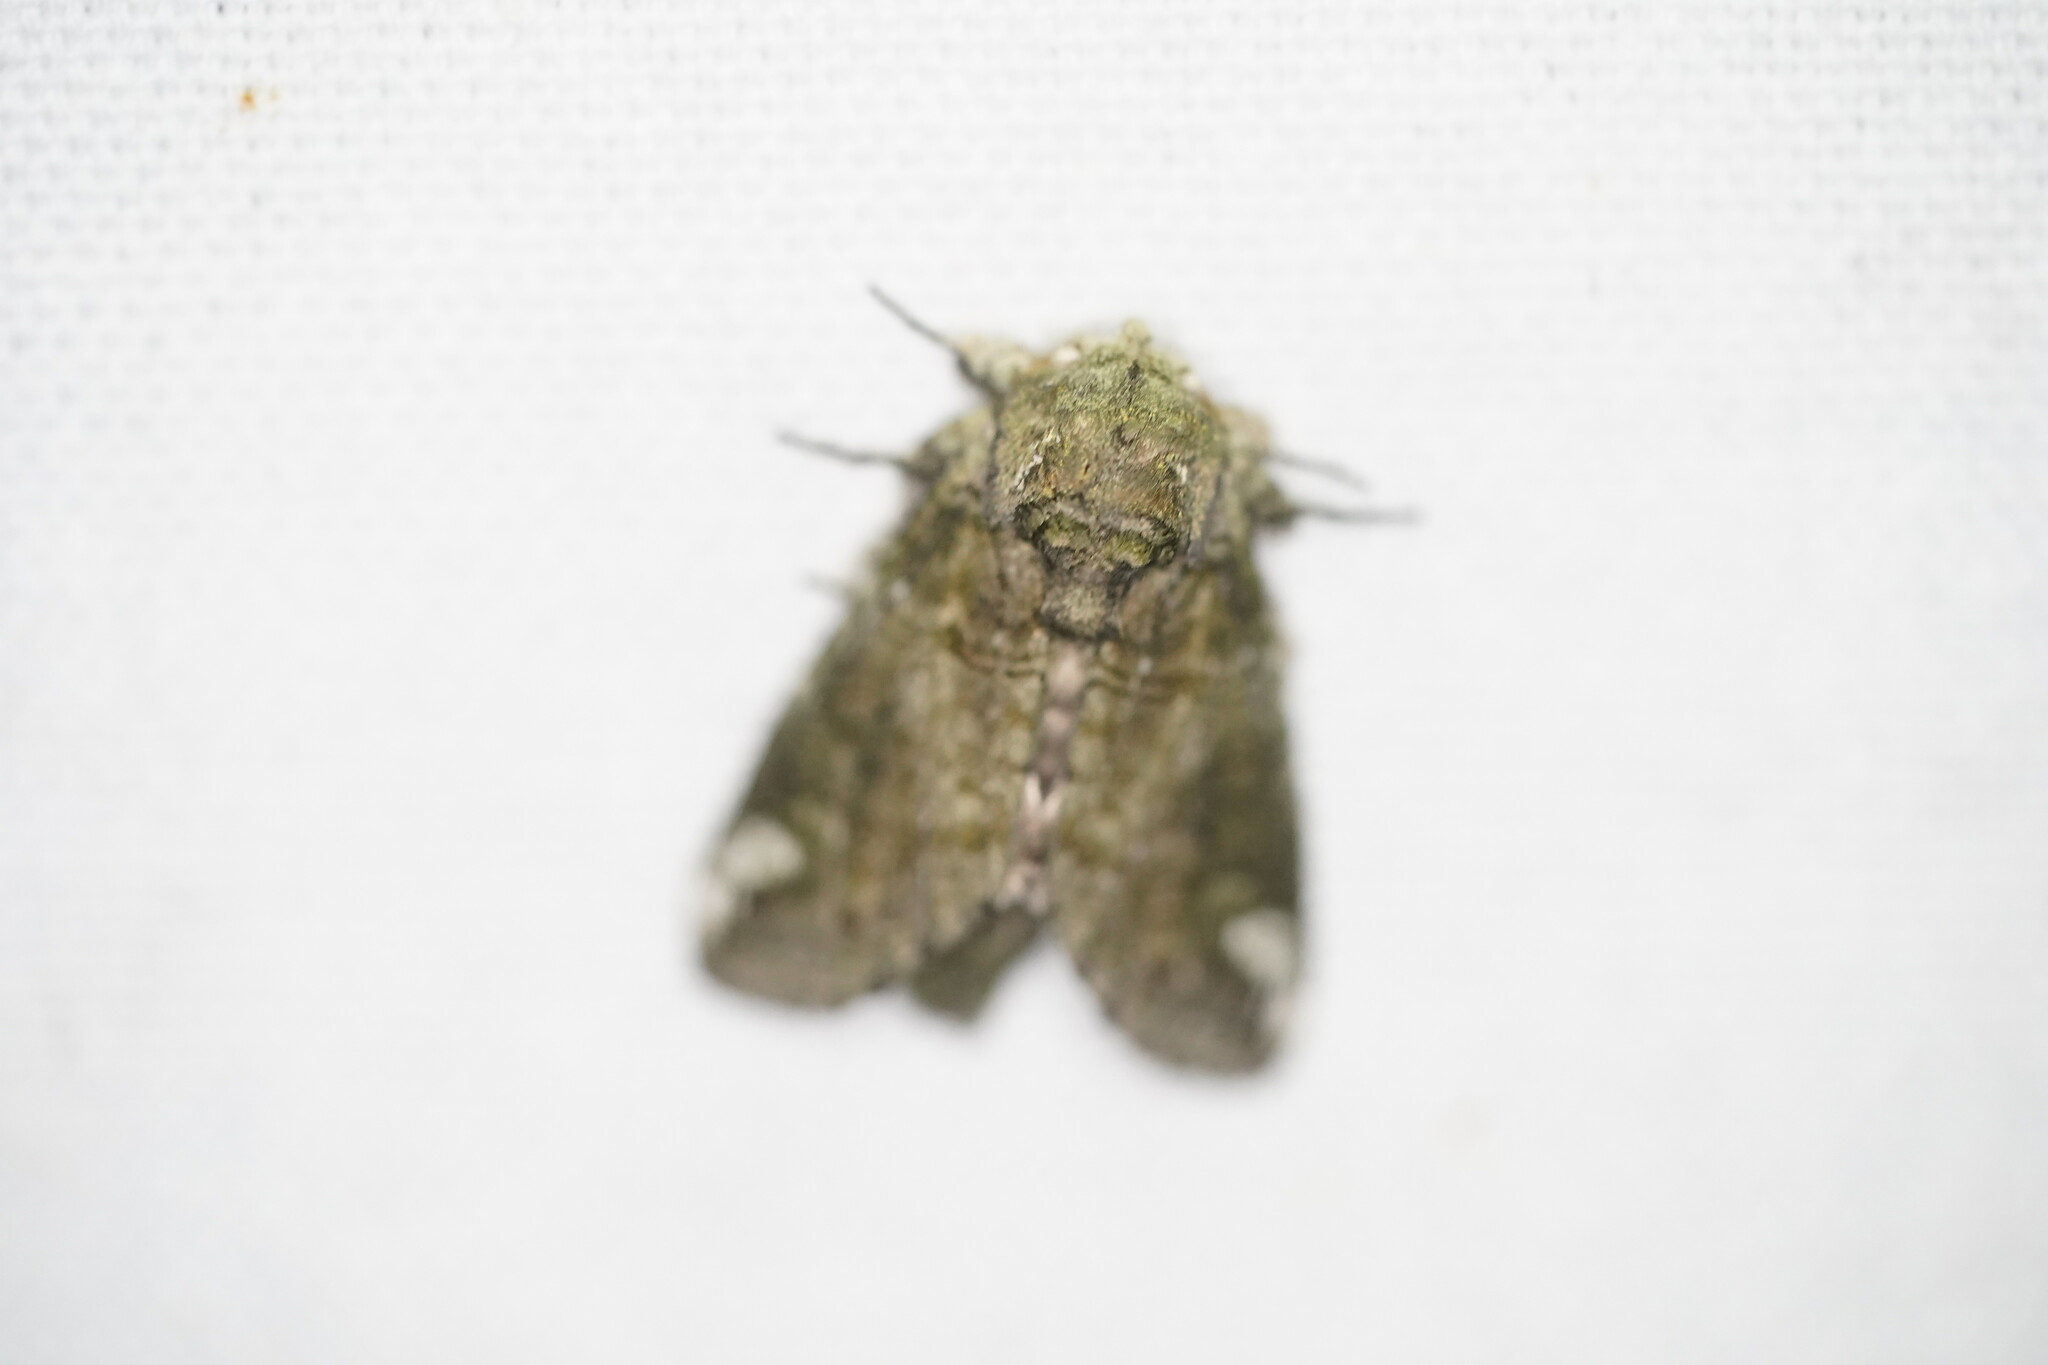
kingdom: Animalia
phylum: Arthropoda
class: Insecta
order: Lepidoptera
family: Notodontidae
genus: Heterocampa
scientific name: Heterocampa obliqua
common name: Oblique heterocampa
